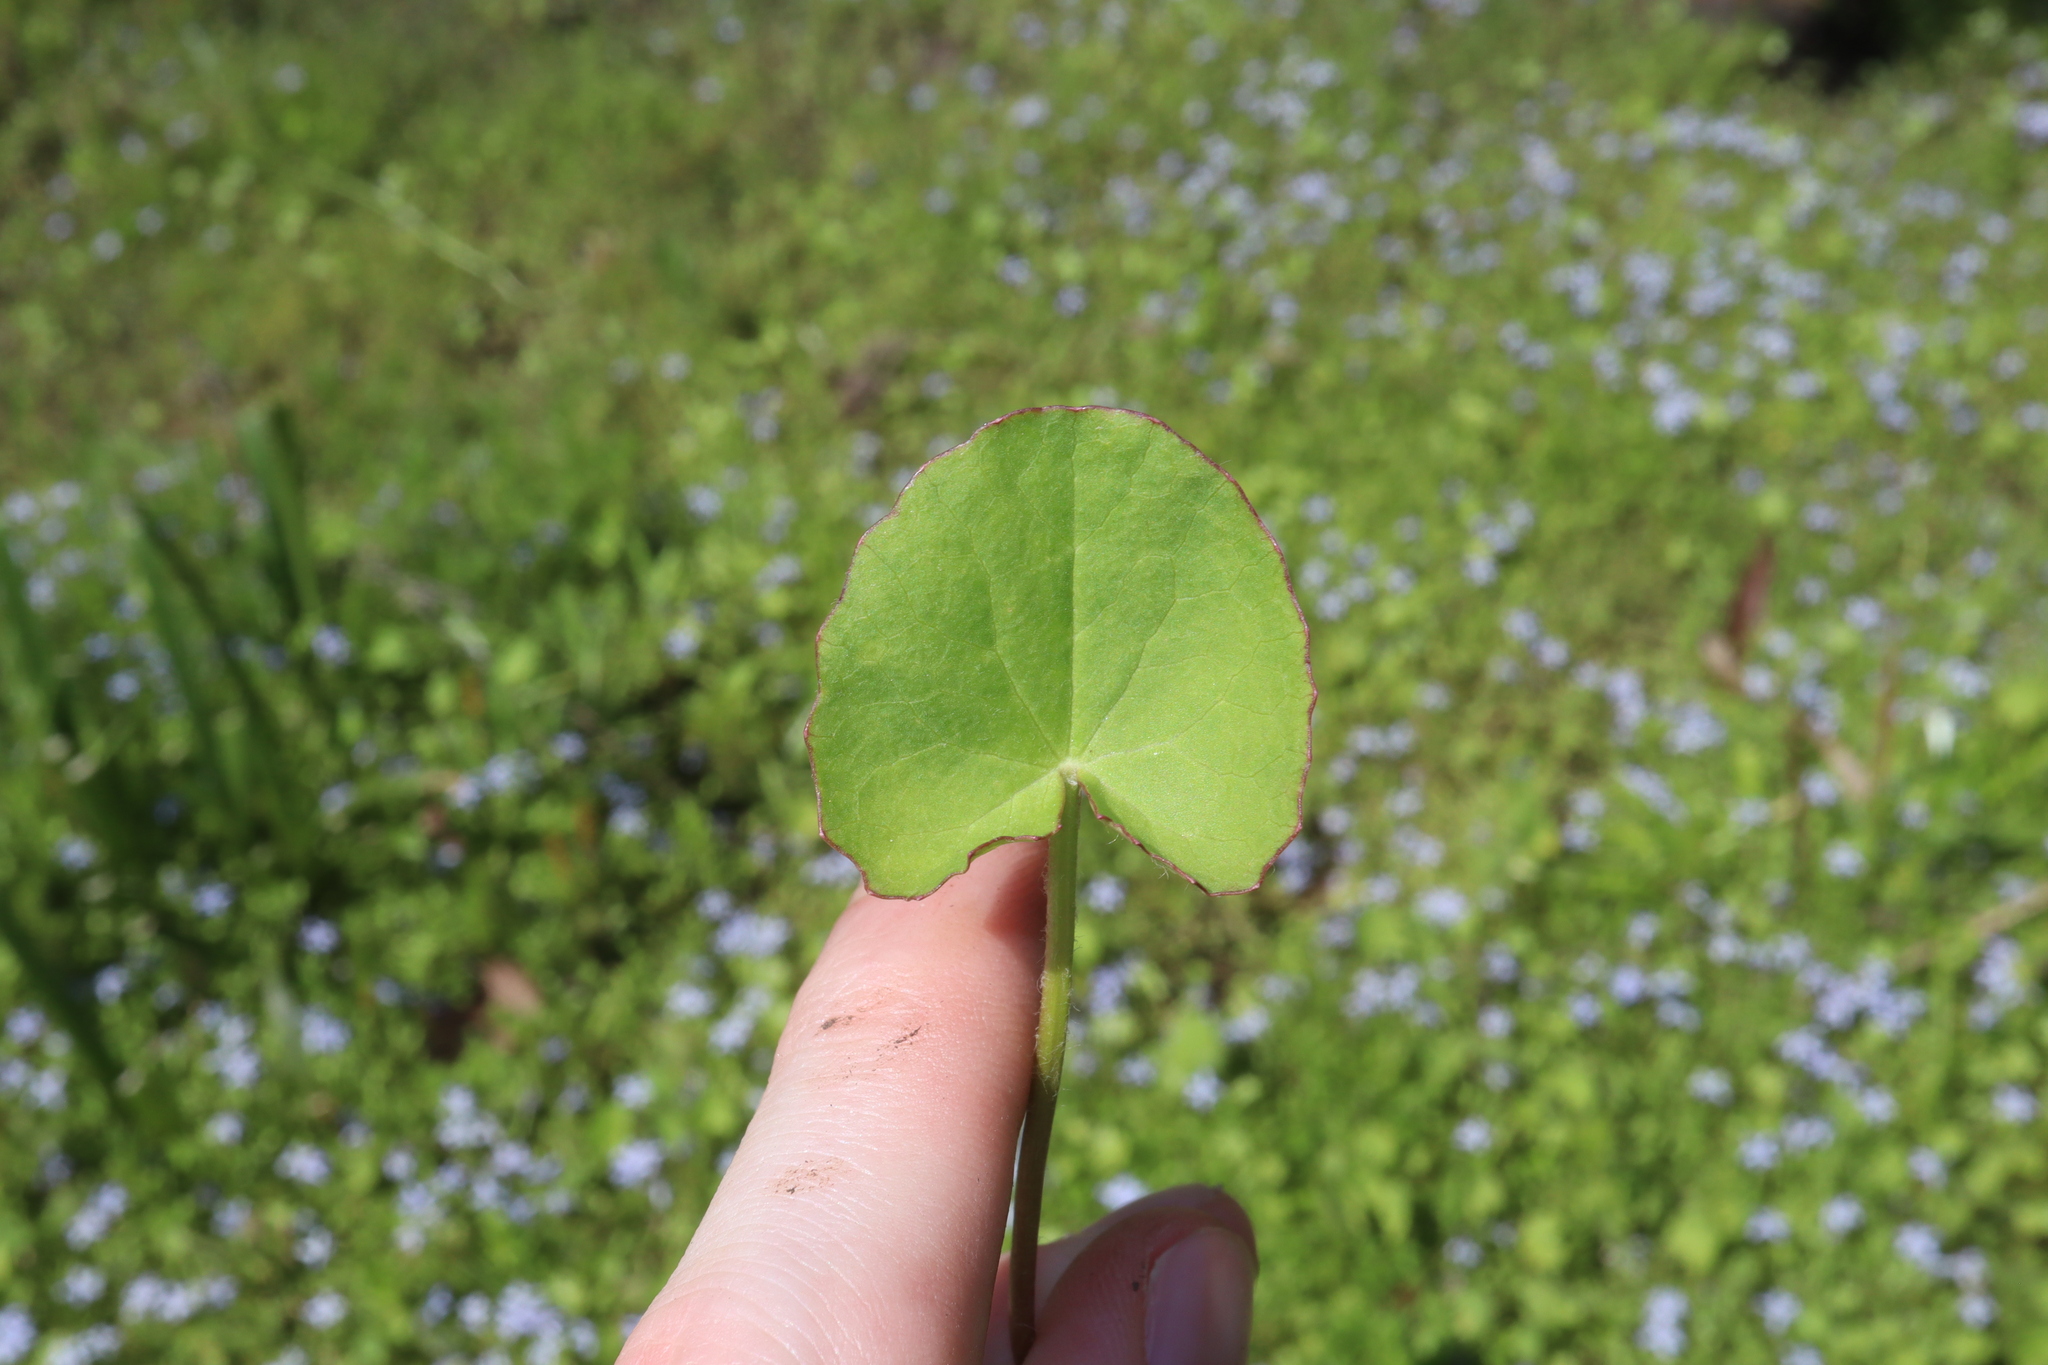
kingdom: Plantae
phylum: Tracheophyta
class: Magnoliopsida
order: Apiales
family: Apiaceae
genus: Centella
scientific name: Centella asiatica
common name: Spadeleaf
